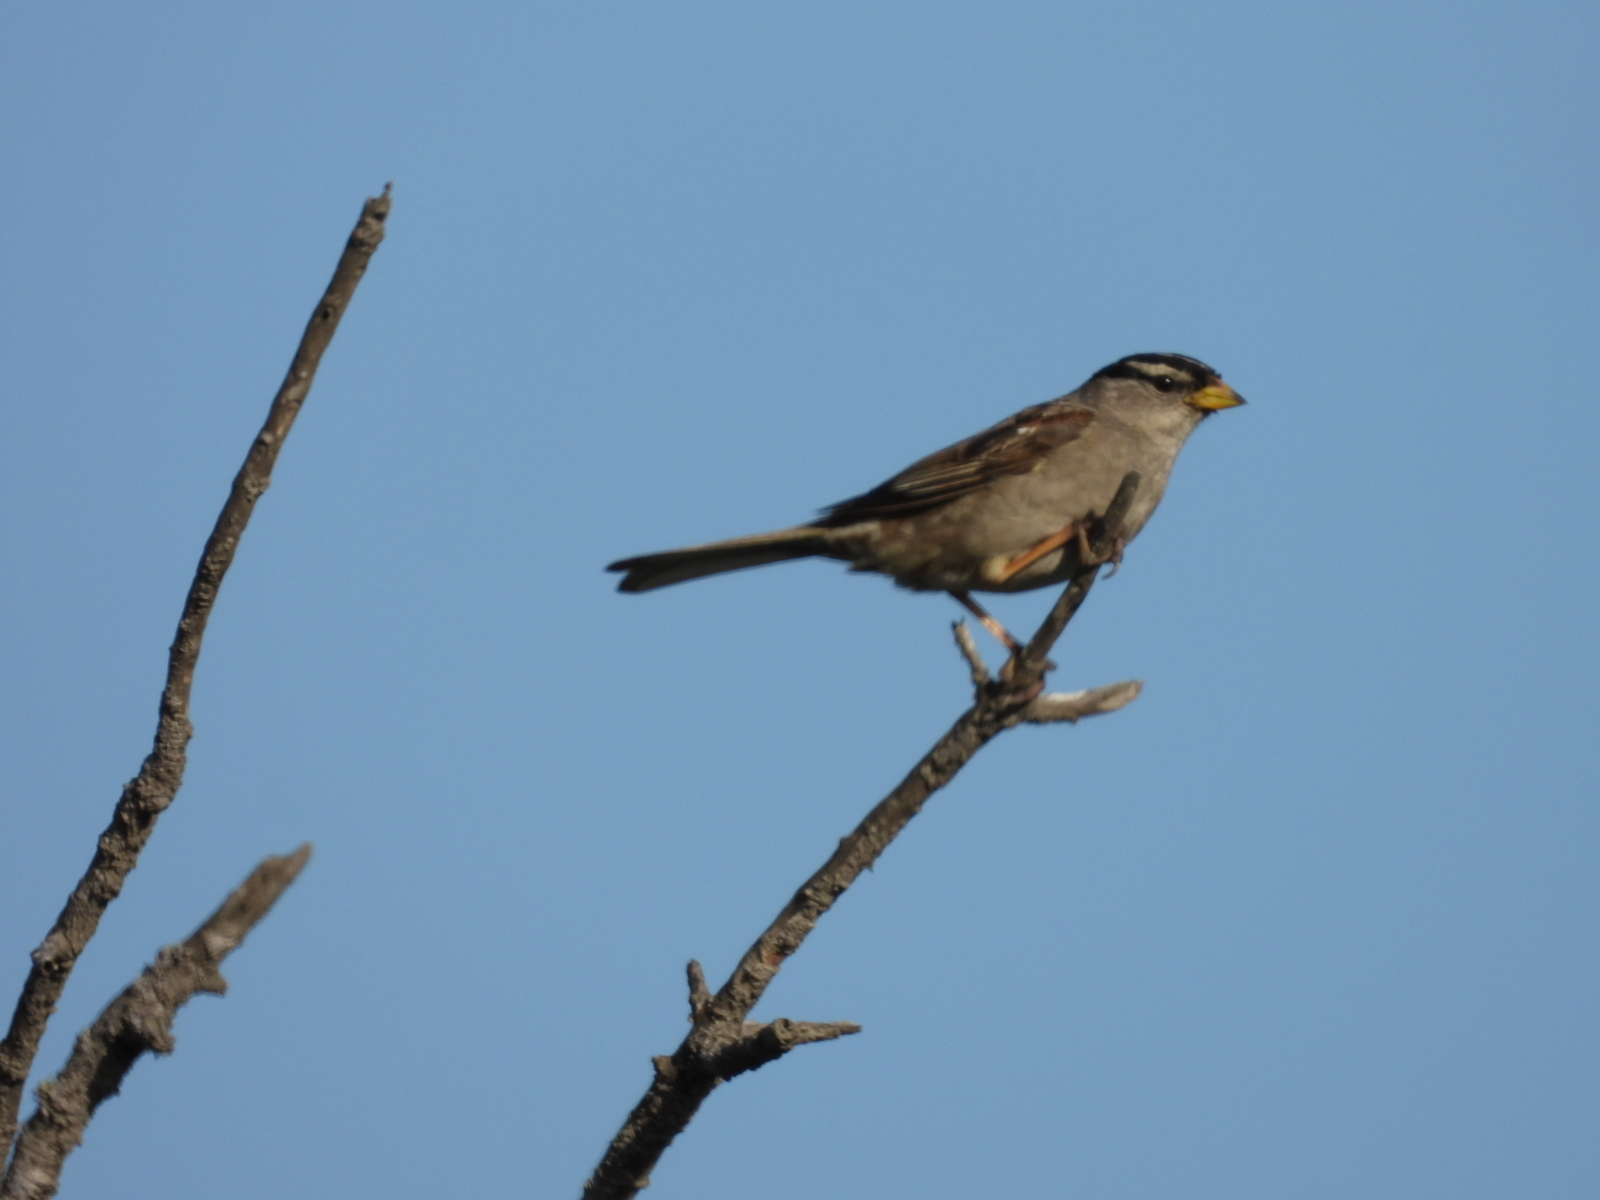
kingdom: Animalia
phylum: Chordata
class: Aves
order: Passeriformes
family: Passerellidae
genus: Zonotrichia
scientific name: Zonotrichia leucophrys
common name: White-crowned sparrow
